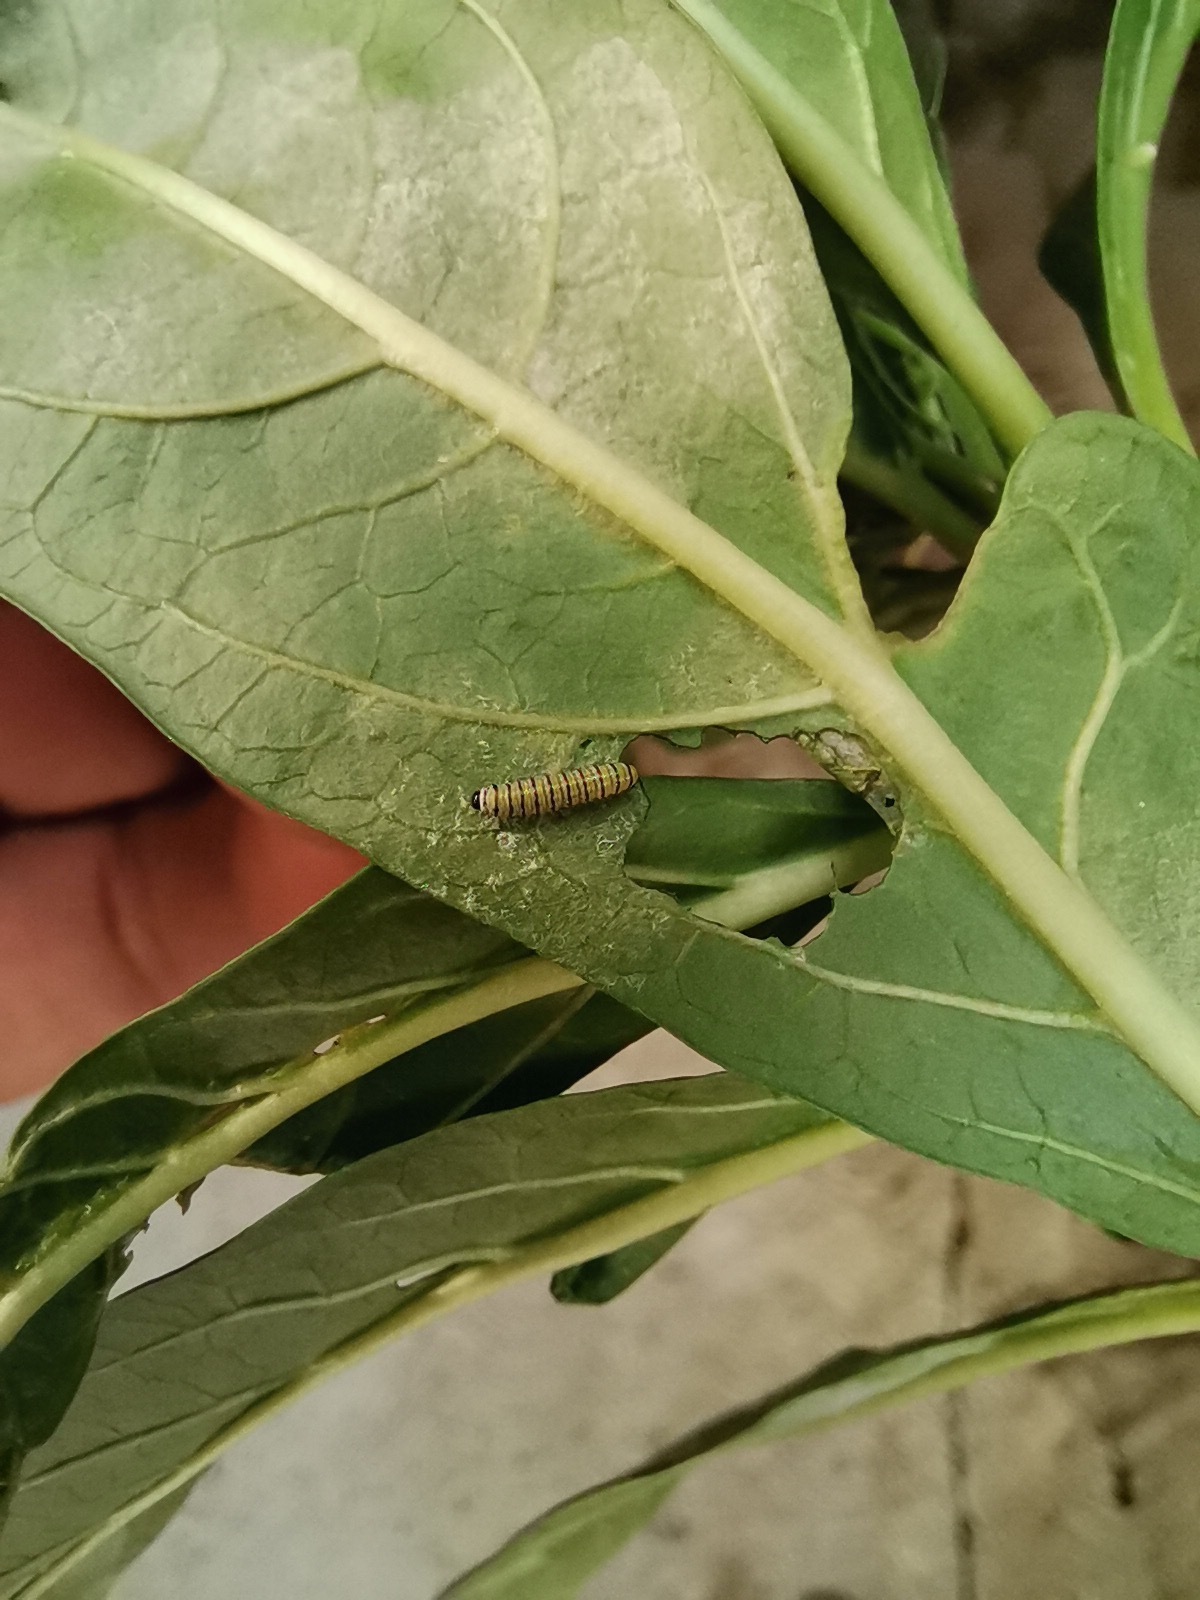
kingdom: Animalia
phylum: Arthropoda
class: Insecta
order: Lepidoptera
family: Nymphalidae
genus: Danaus
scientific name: Danaus plexippus
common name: Monarch
